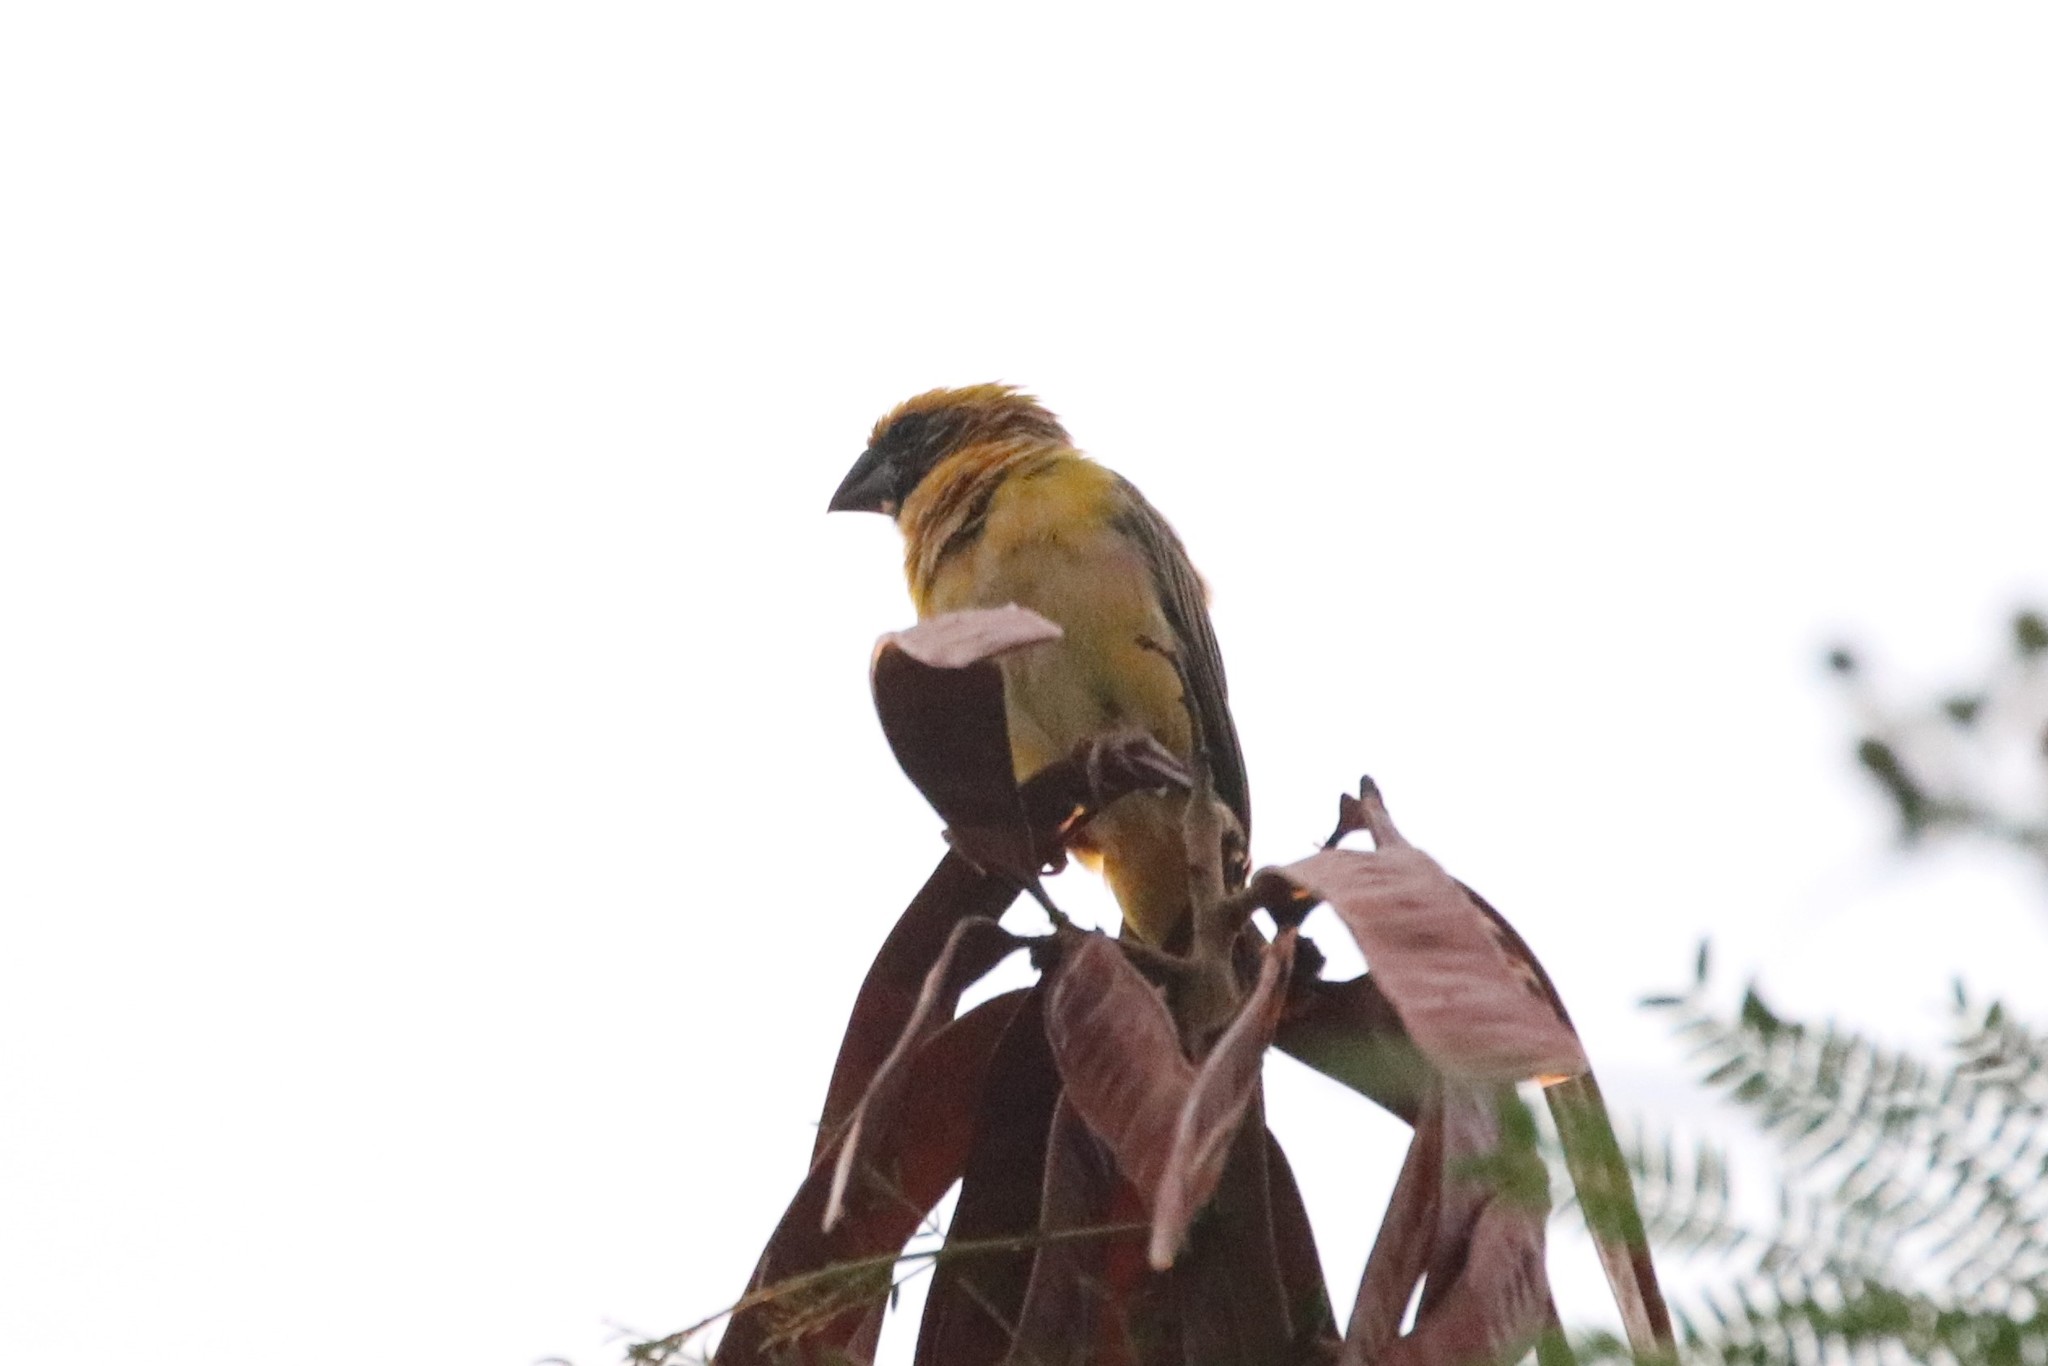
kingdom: Animalia
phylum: Chordata
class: Aves
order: Passeriformes
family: Ploceidae
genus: Ploceus
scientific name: Ploceus philippinus
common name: Baya weaver
